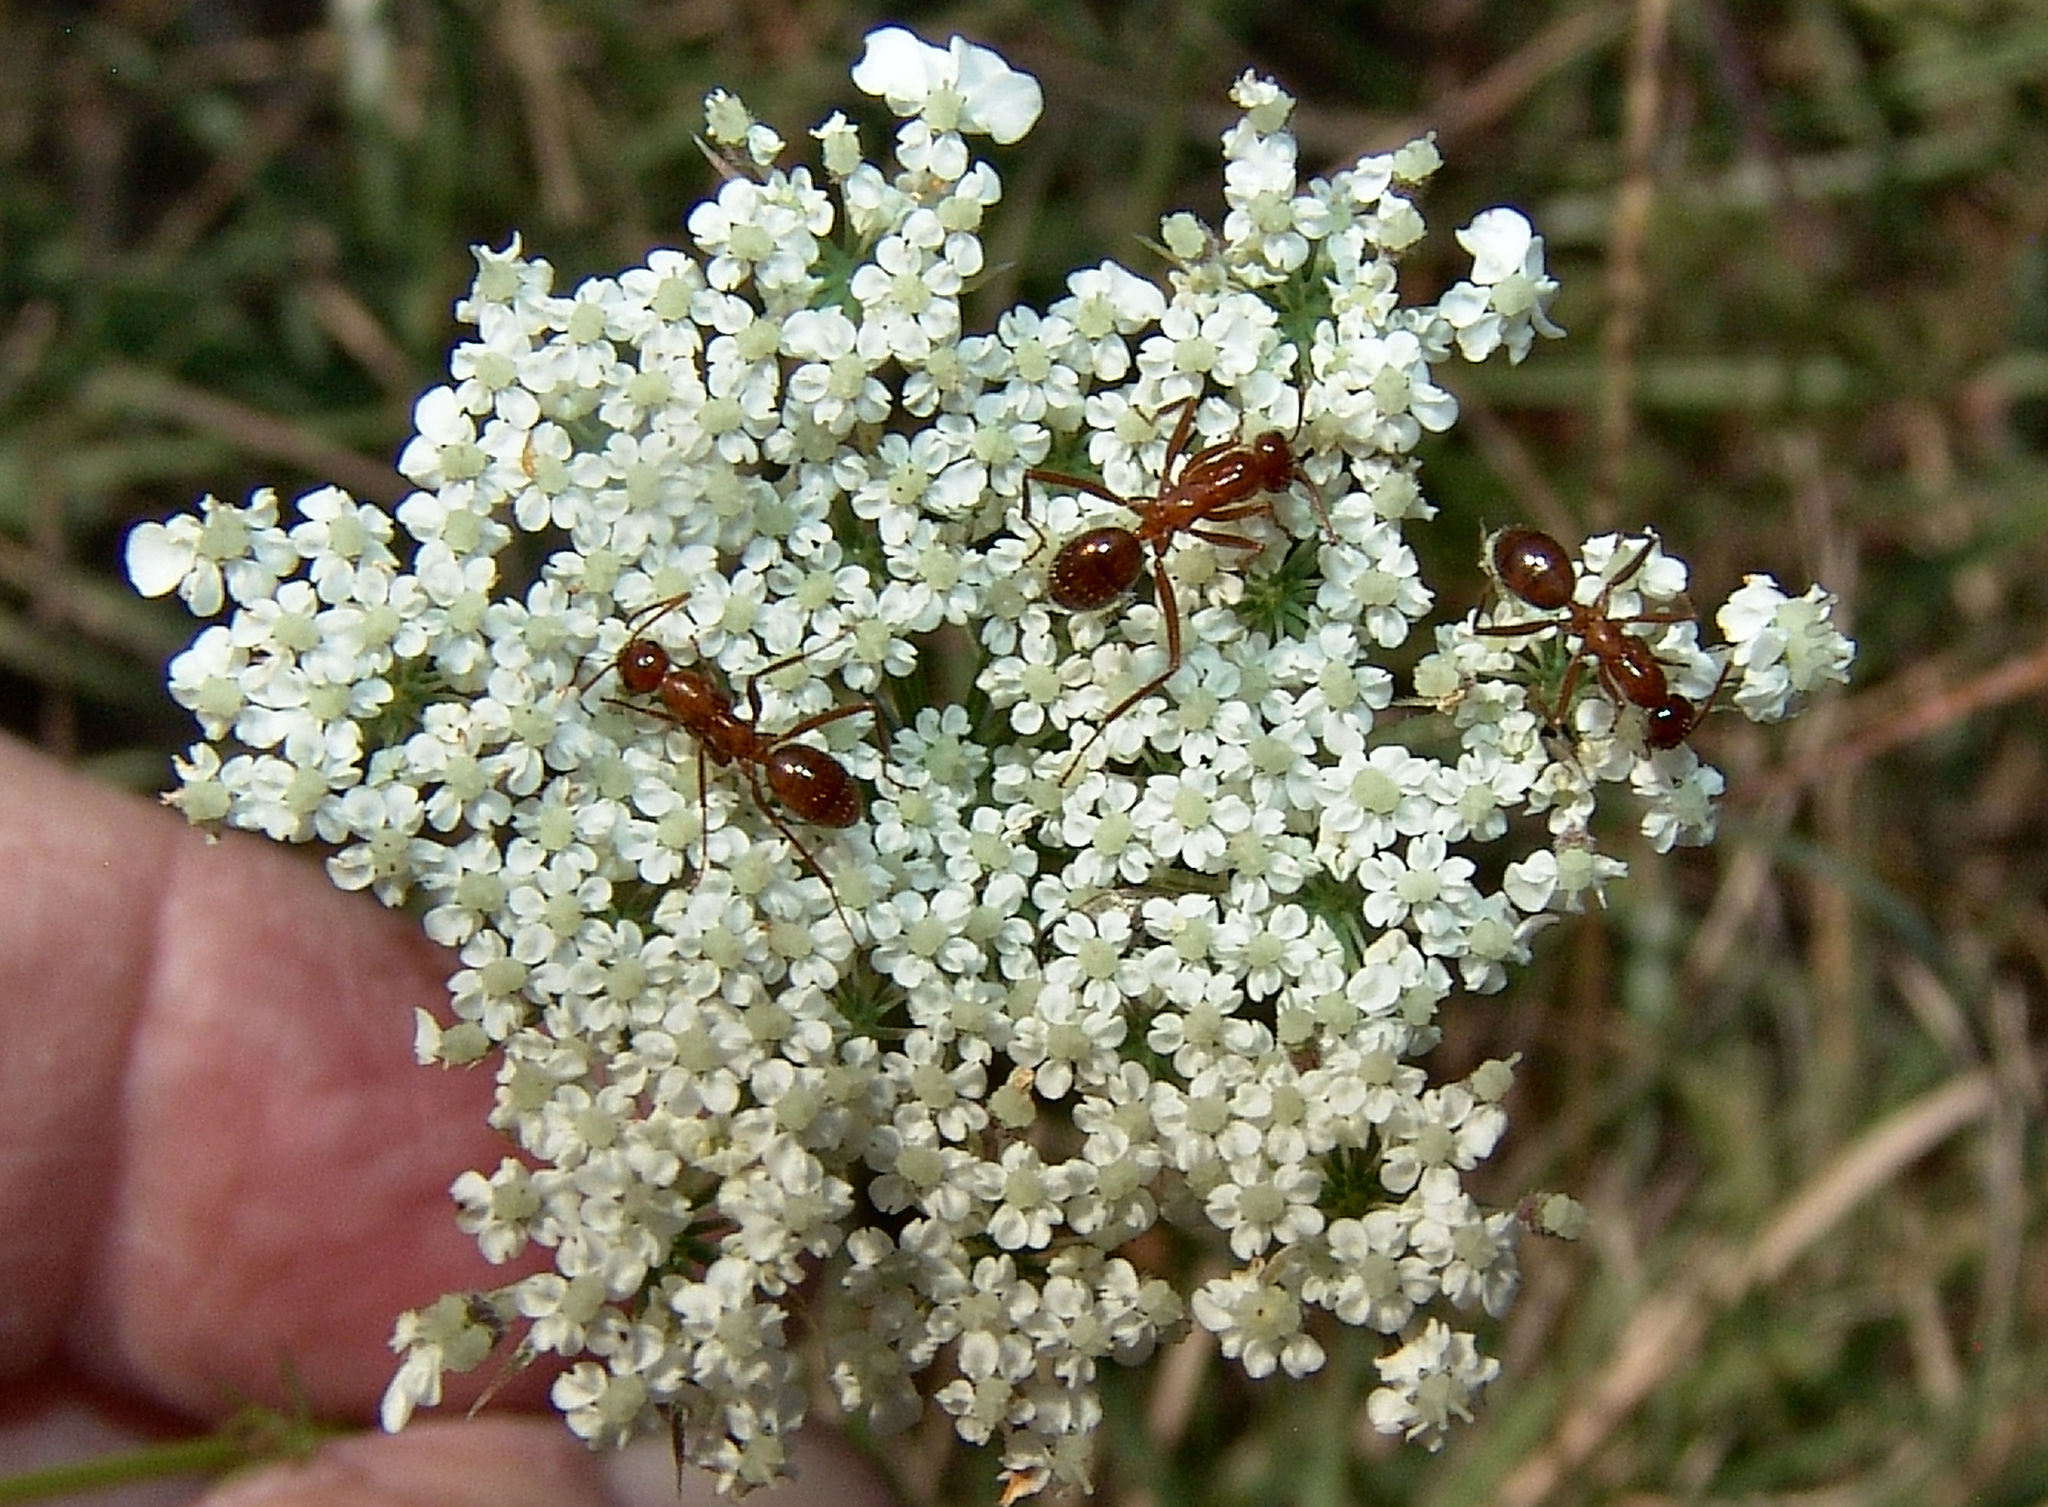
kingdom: Animalia
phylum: Arthropoda
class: Insecta
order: Hymenoptera
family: Formicidae
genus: Formica
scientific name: Formica
